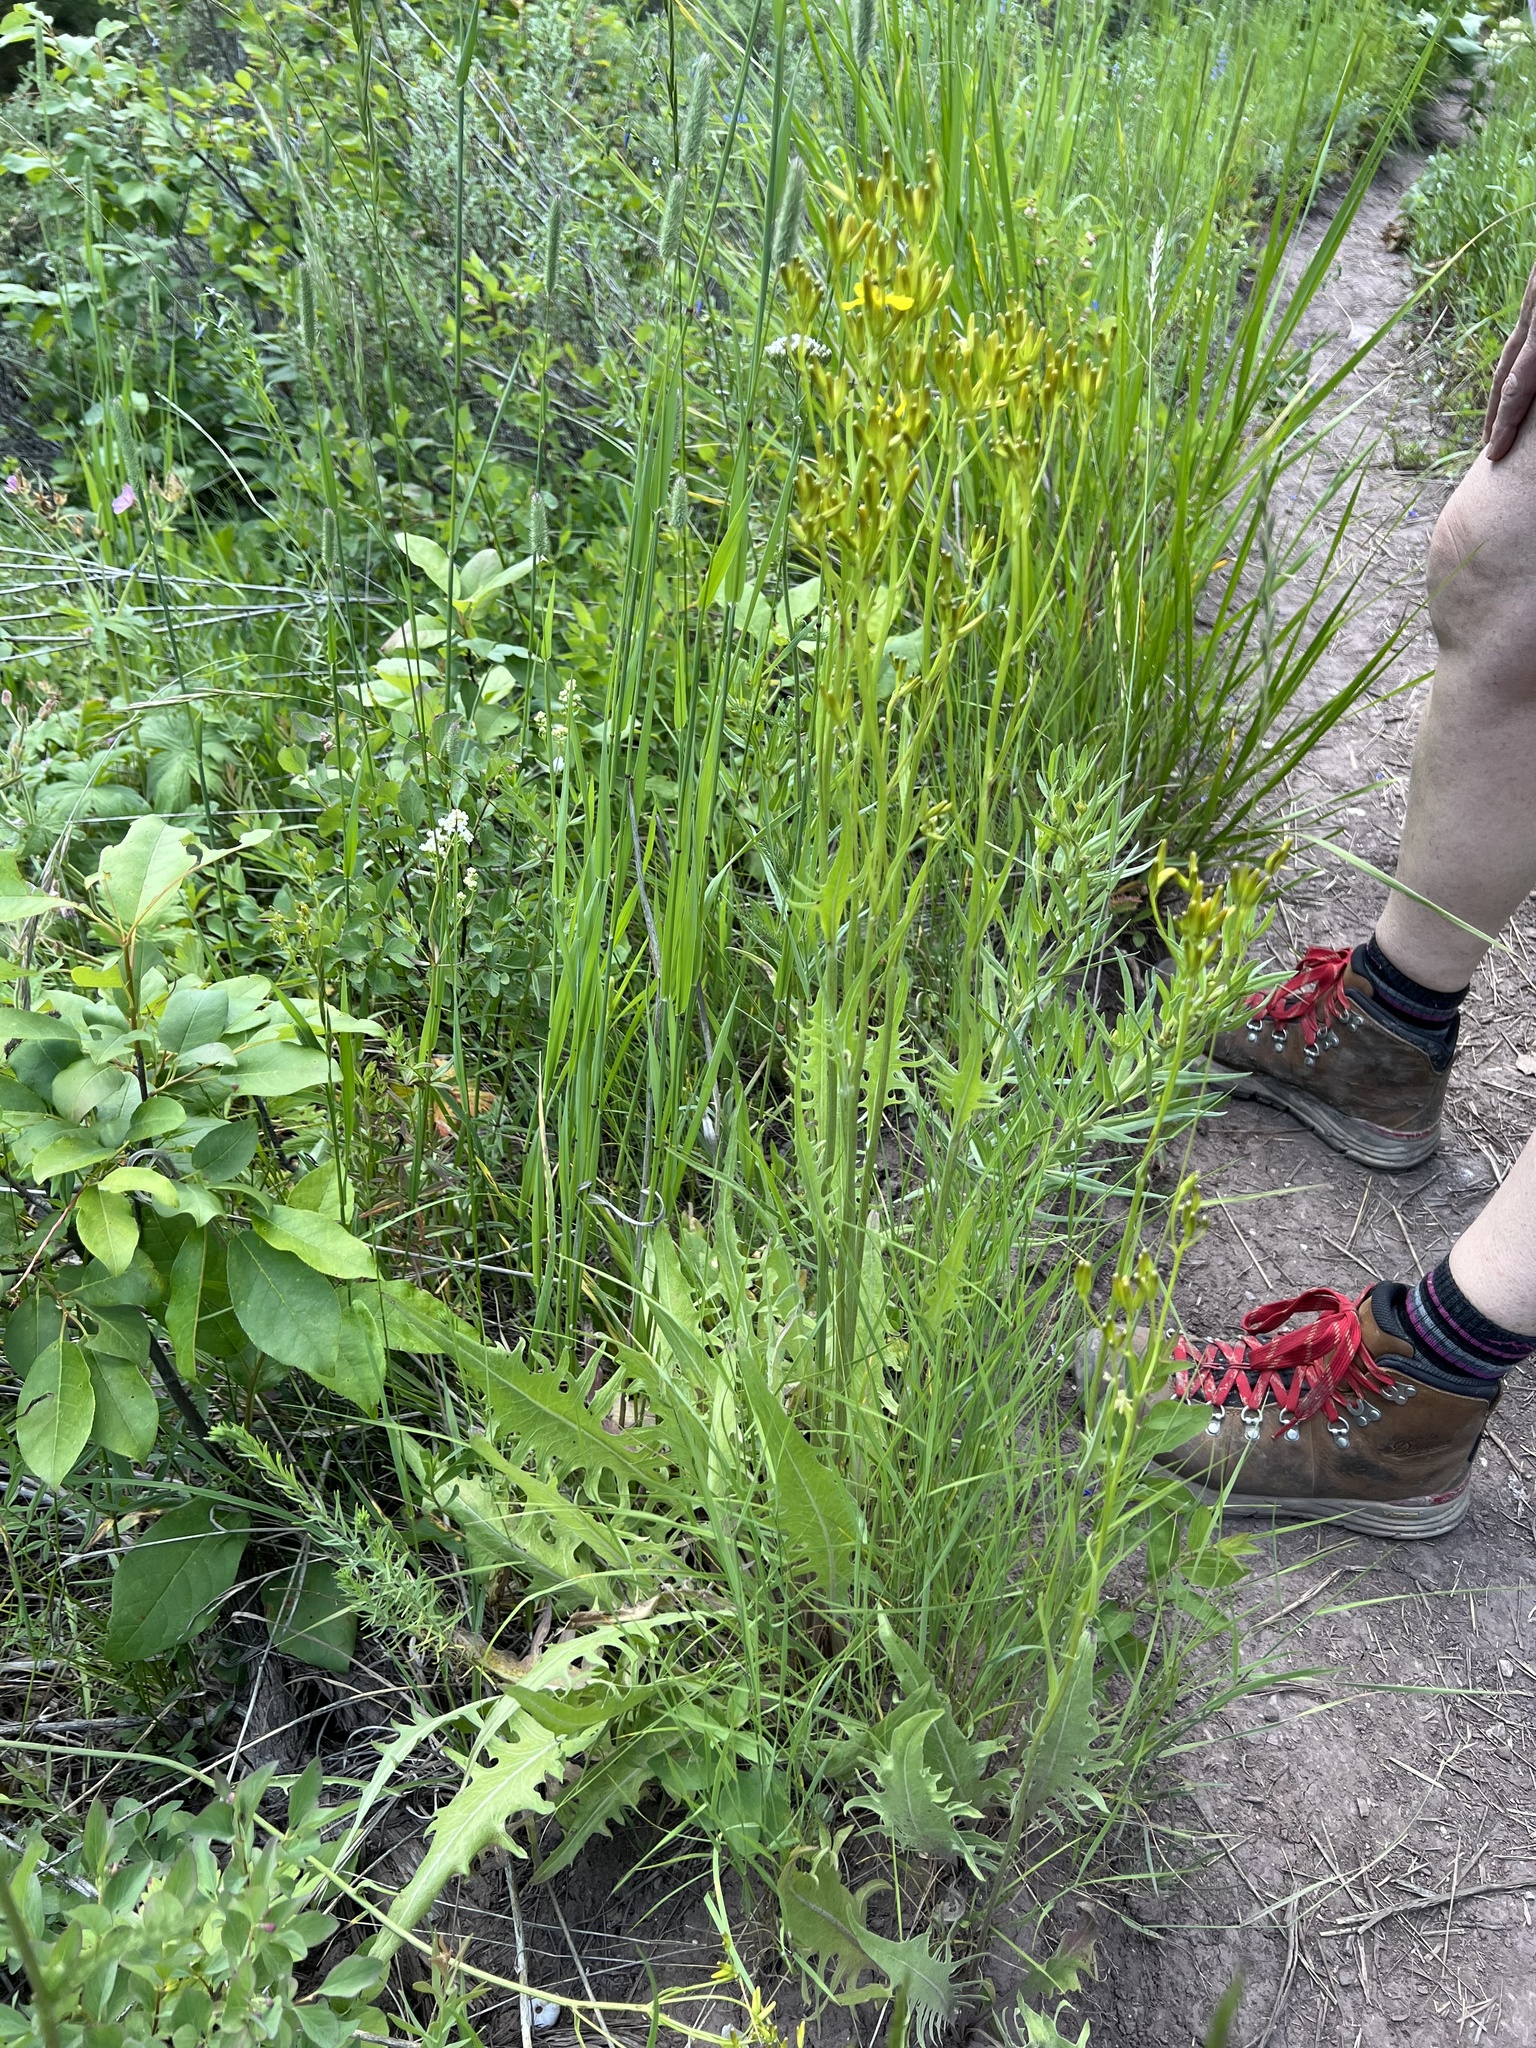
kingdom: Plantae
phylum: Tracheophyta
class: Magnoliopsida
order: Asterales
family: Asteraceae
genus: Crepis
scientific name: Crepis acuminata
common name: Longleaf hawk's-beard
